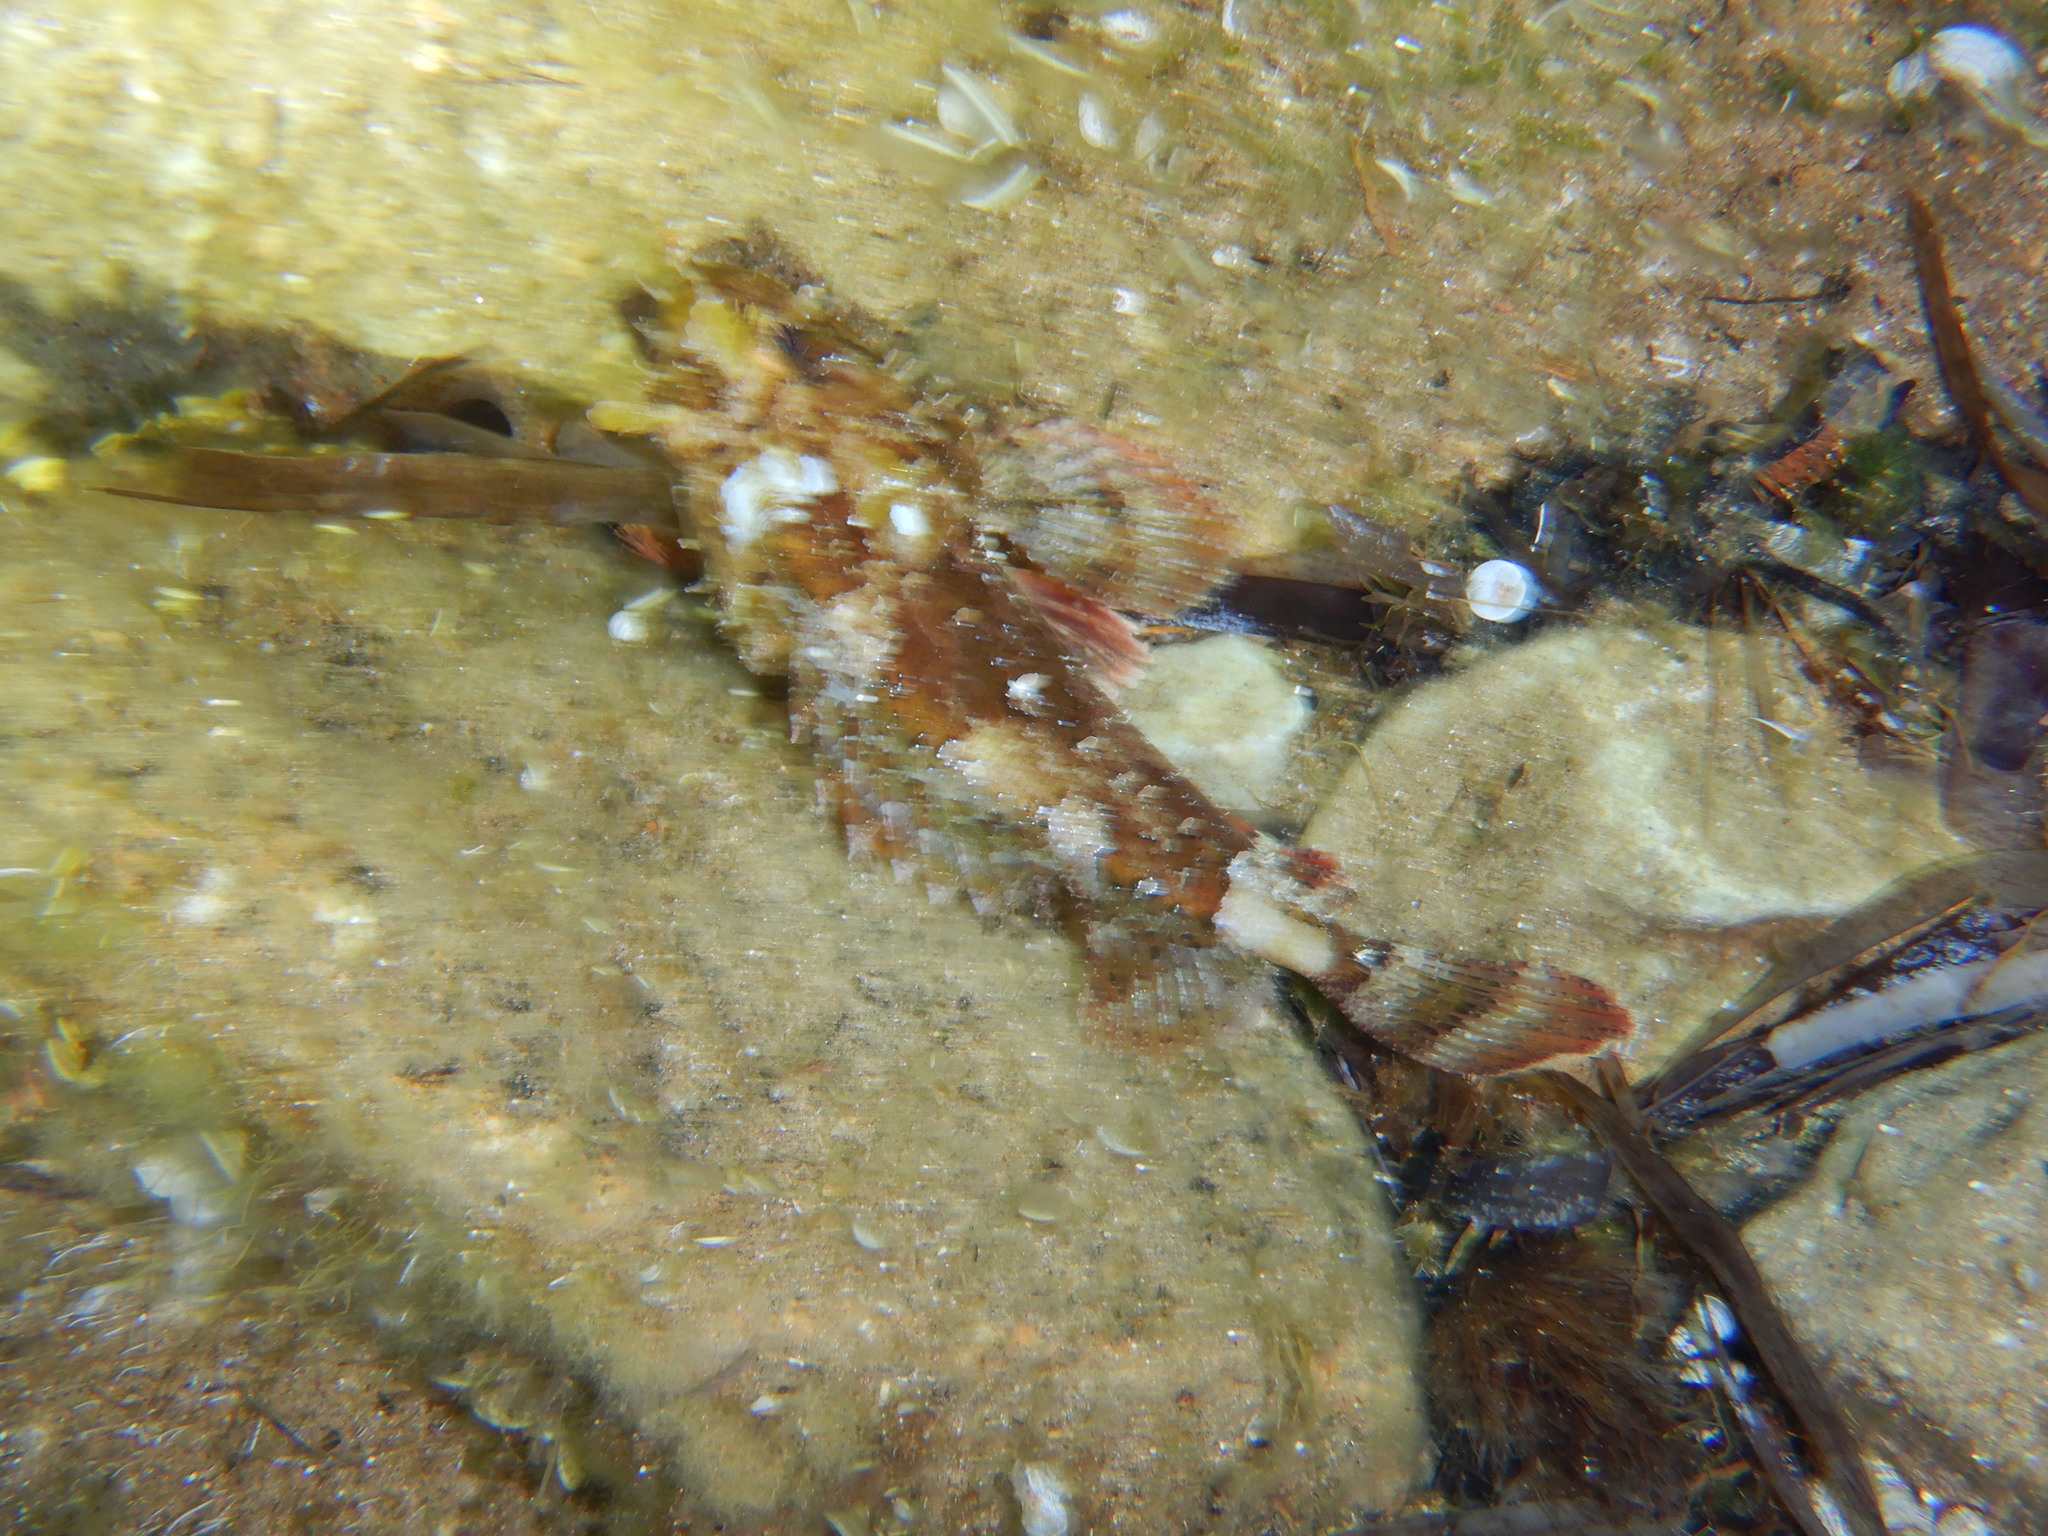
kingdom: Animalia
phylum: Chordata
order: Scorpaeniformes
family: Scorpaenidae
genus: Scorpaena
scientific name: Scorpaena porcus
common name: Black scorpionfish
